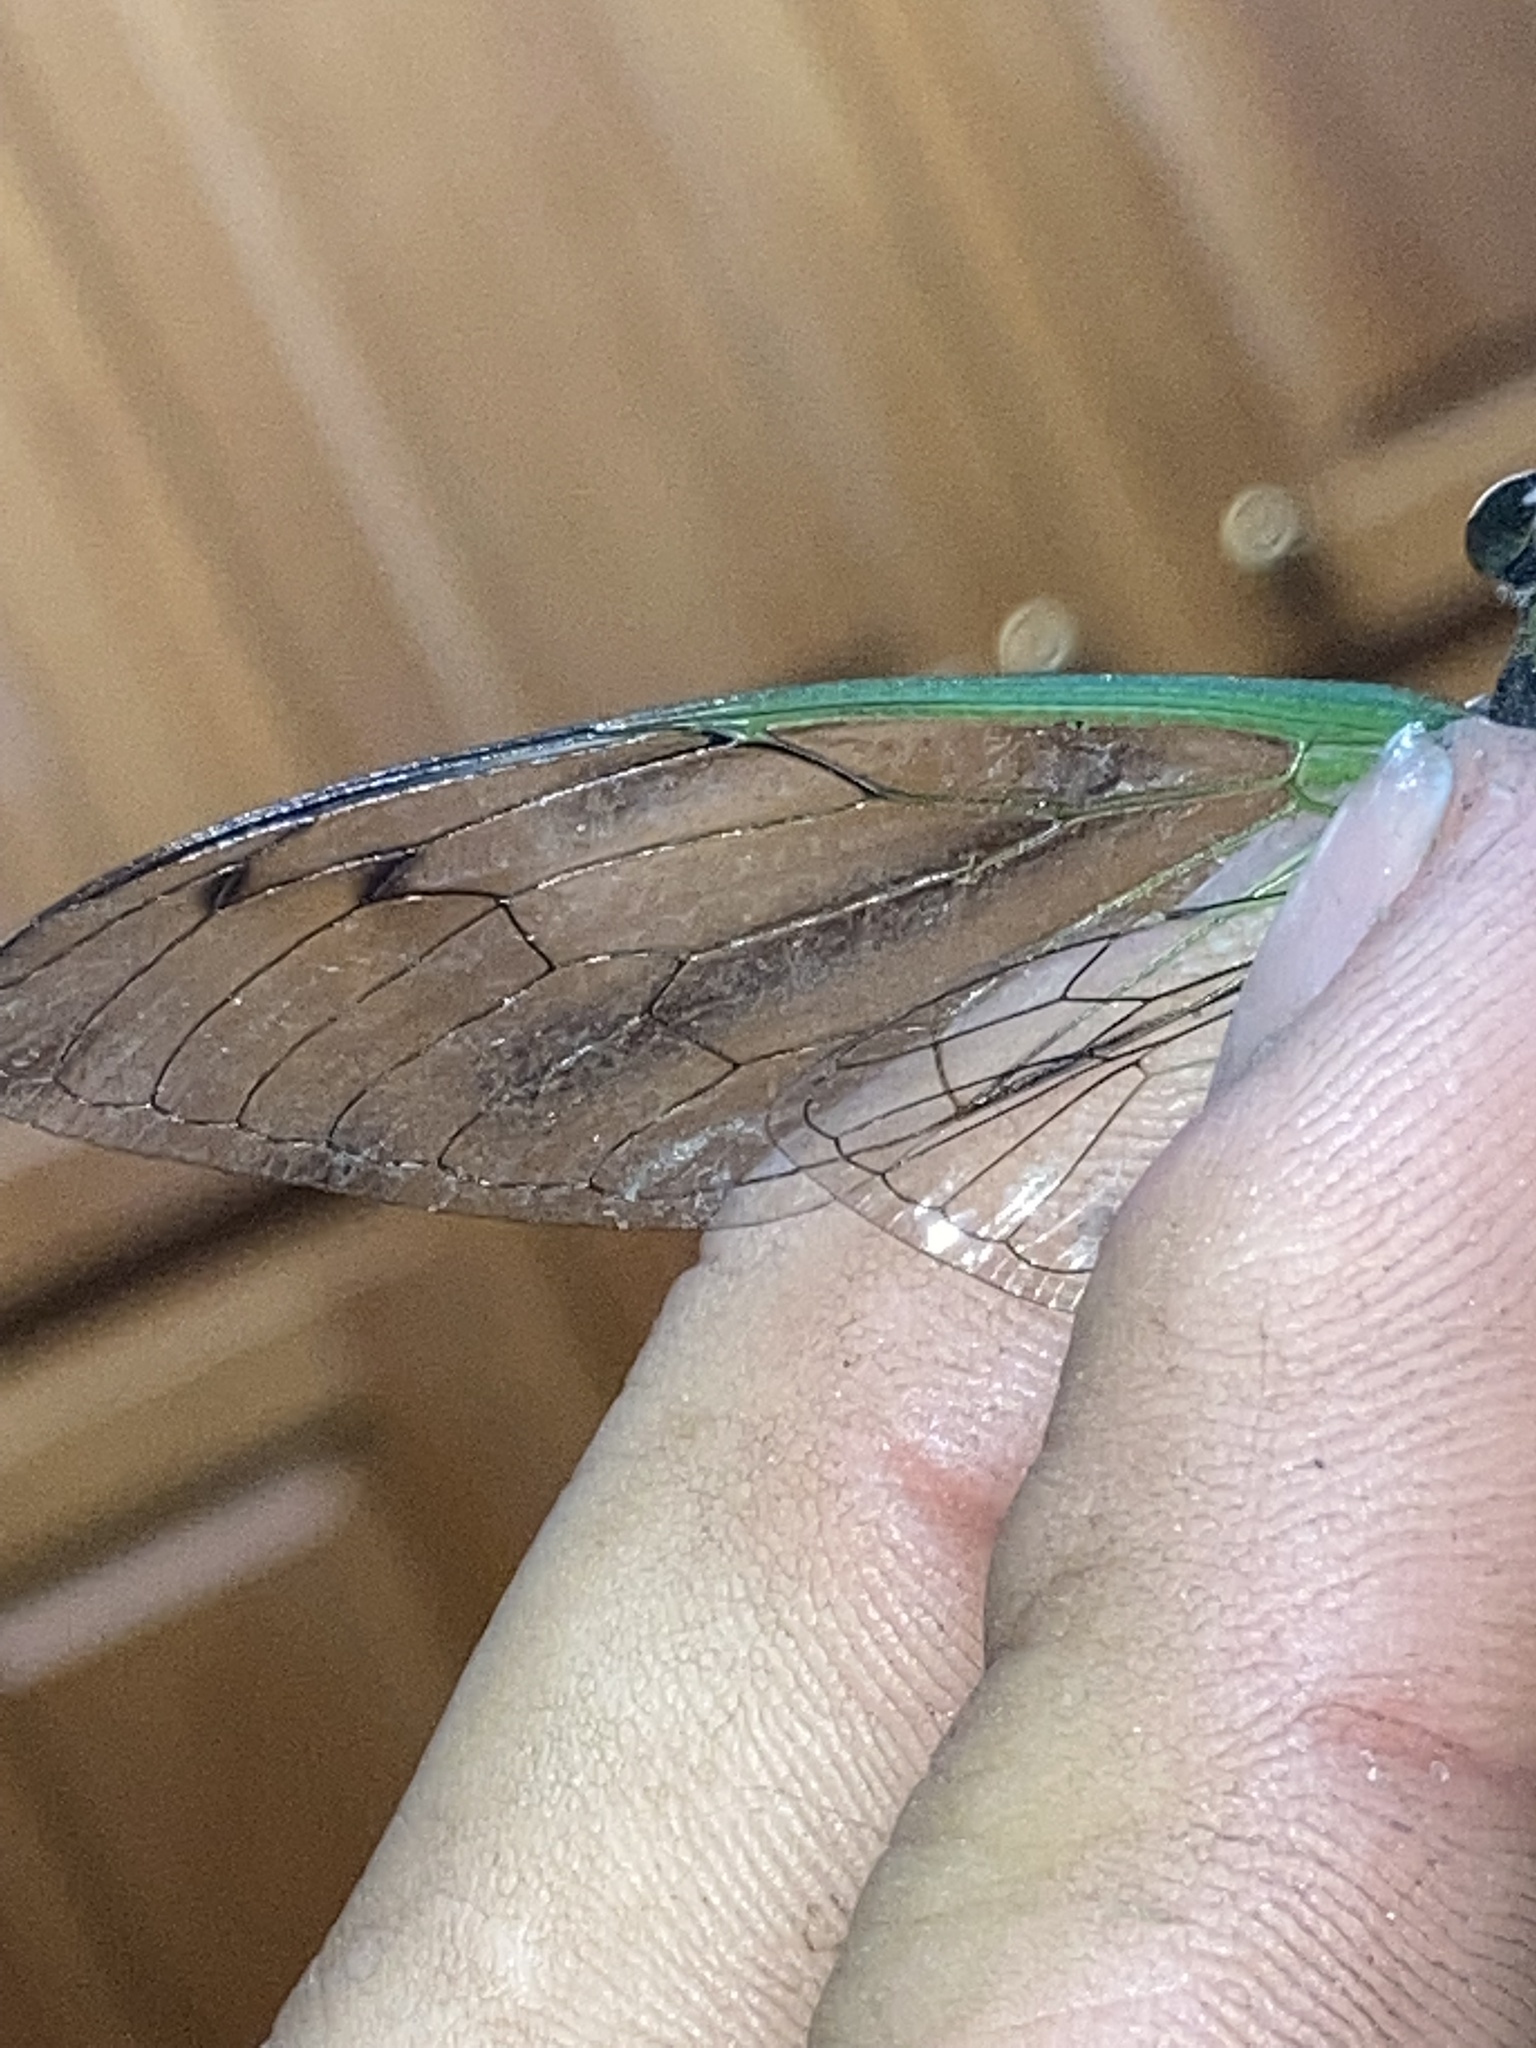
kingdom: Animalia
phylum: Arthropoda
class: Insecta
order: Hemiptera
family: Cicadidae
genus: Neotibicen
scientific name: Neotibicen tibicen
